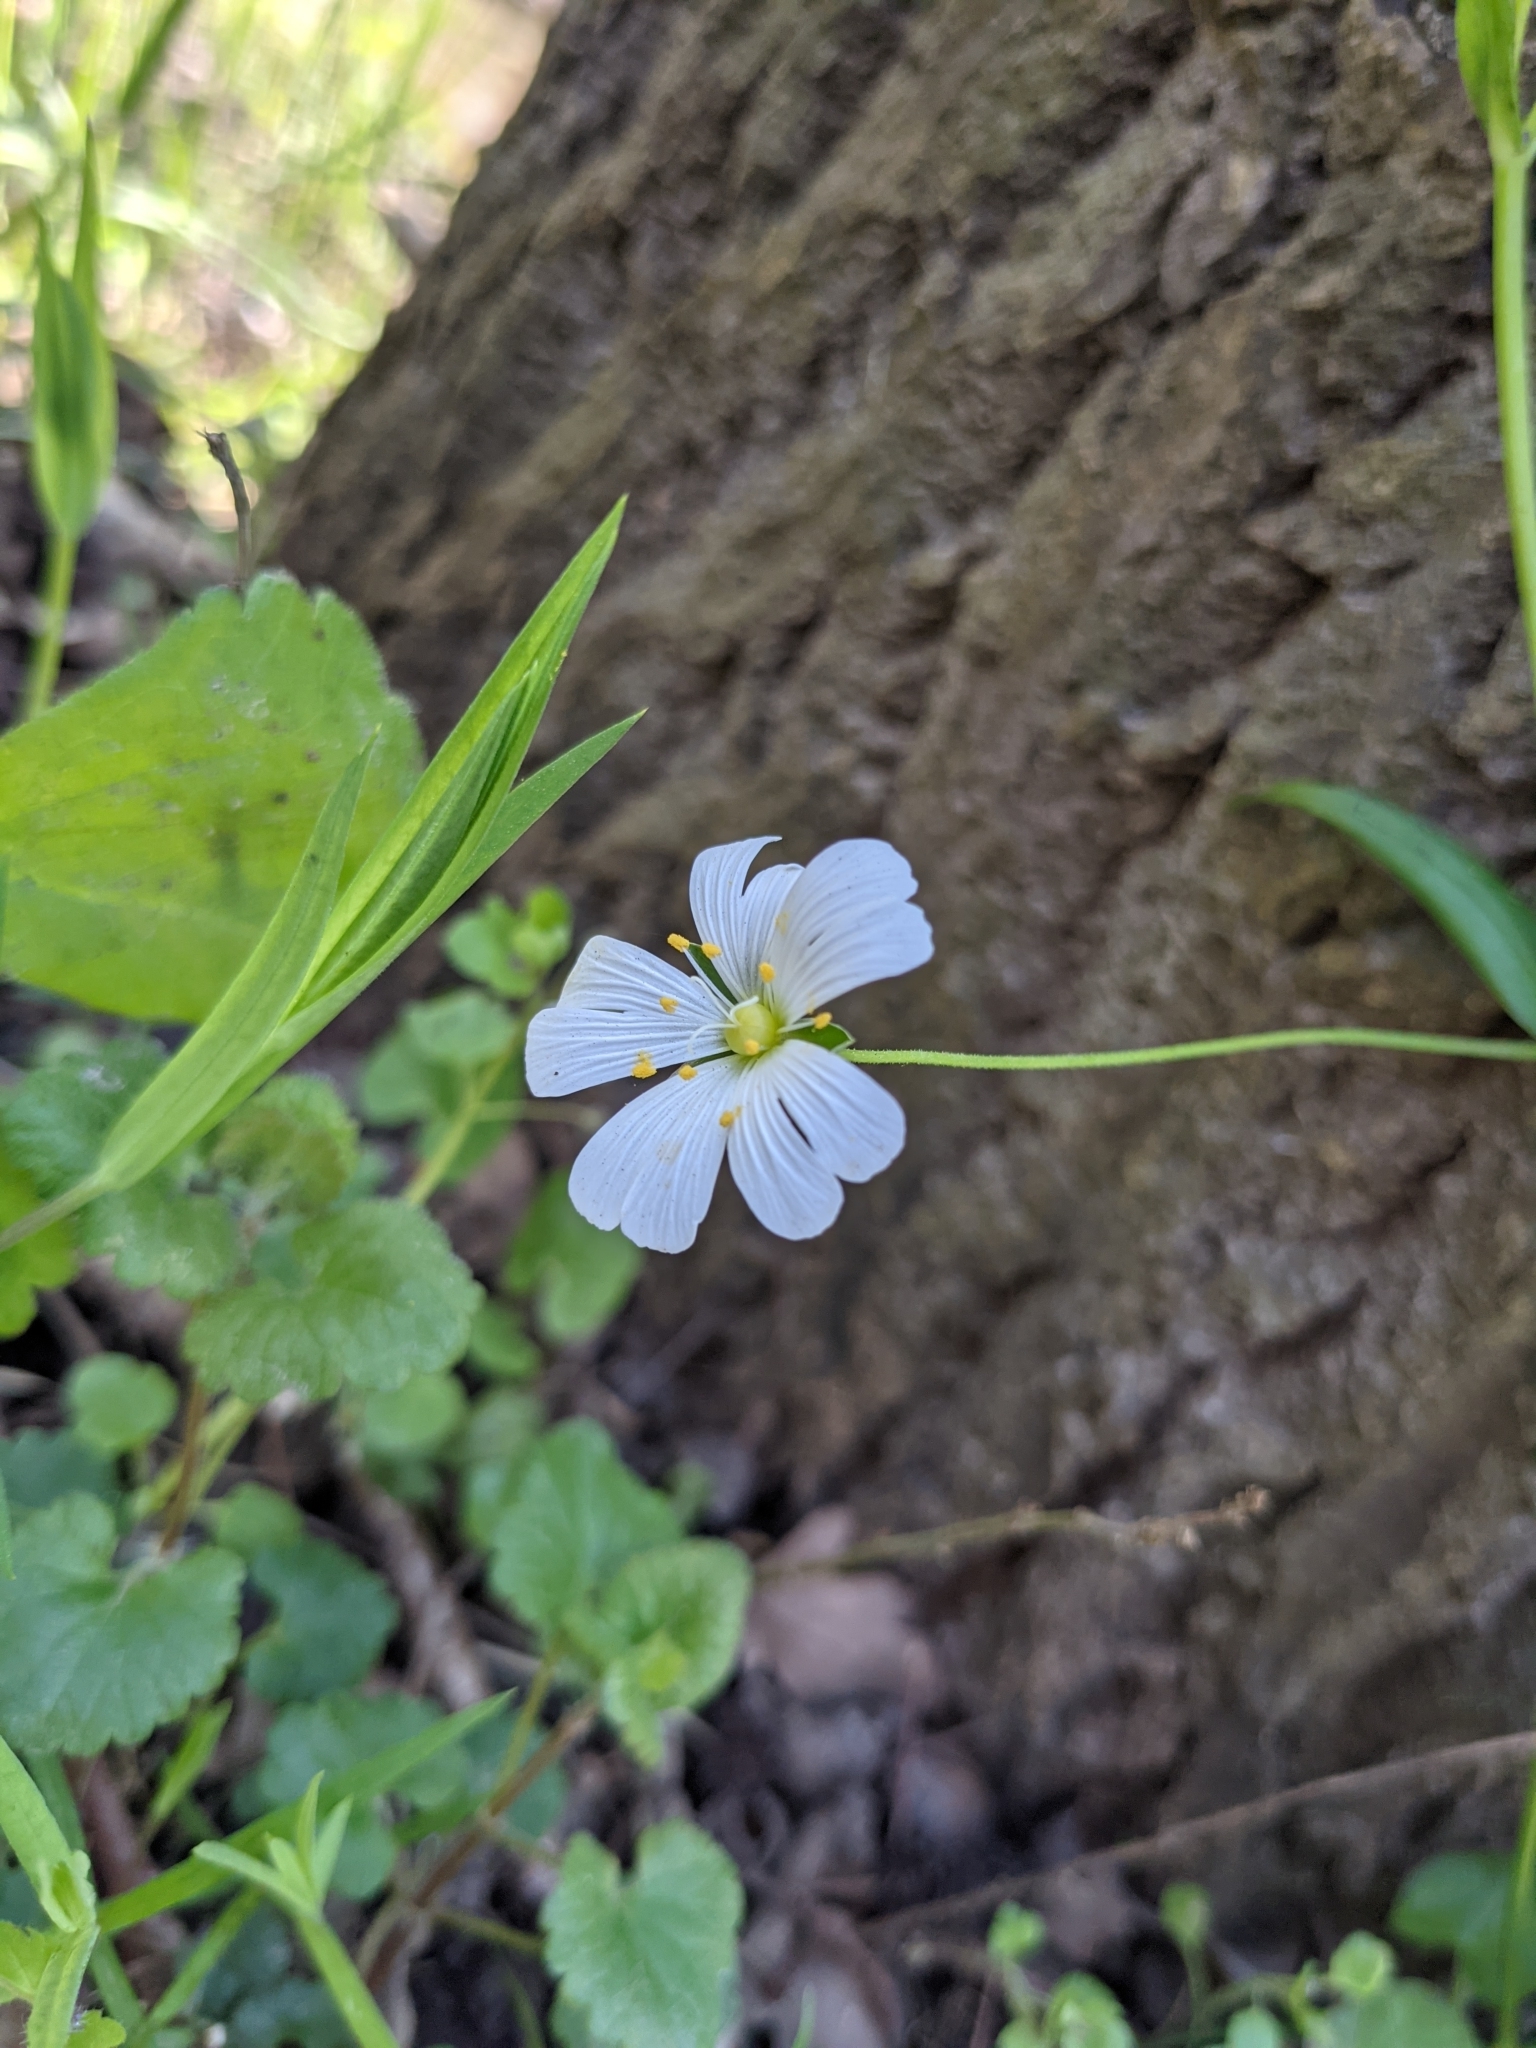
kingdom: Plantae
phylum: Tracheophyta
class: Magnoliopsida
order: Caryophyllales
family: Caryophyllaceae
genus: Rabelera
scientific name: Rabelera holostea
